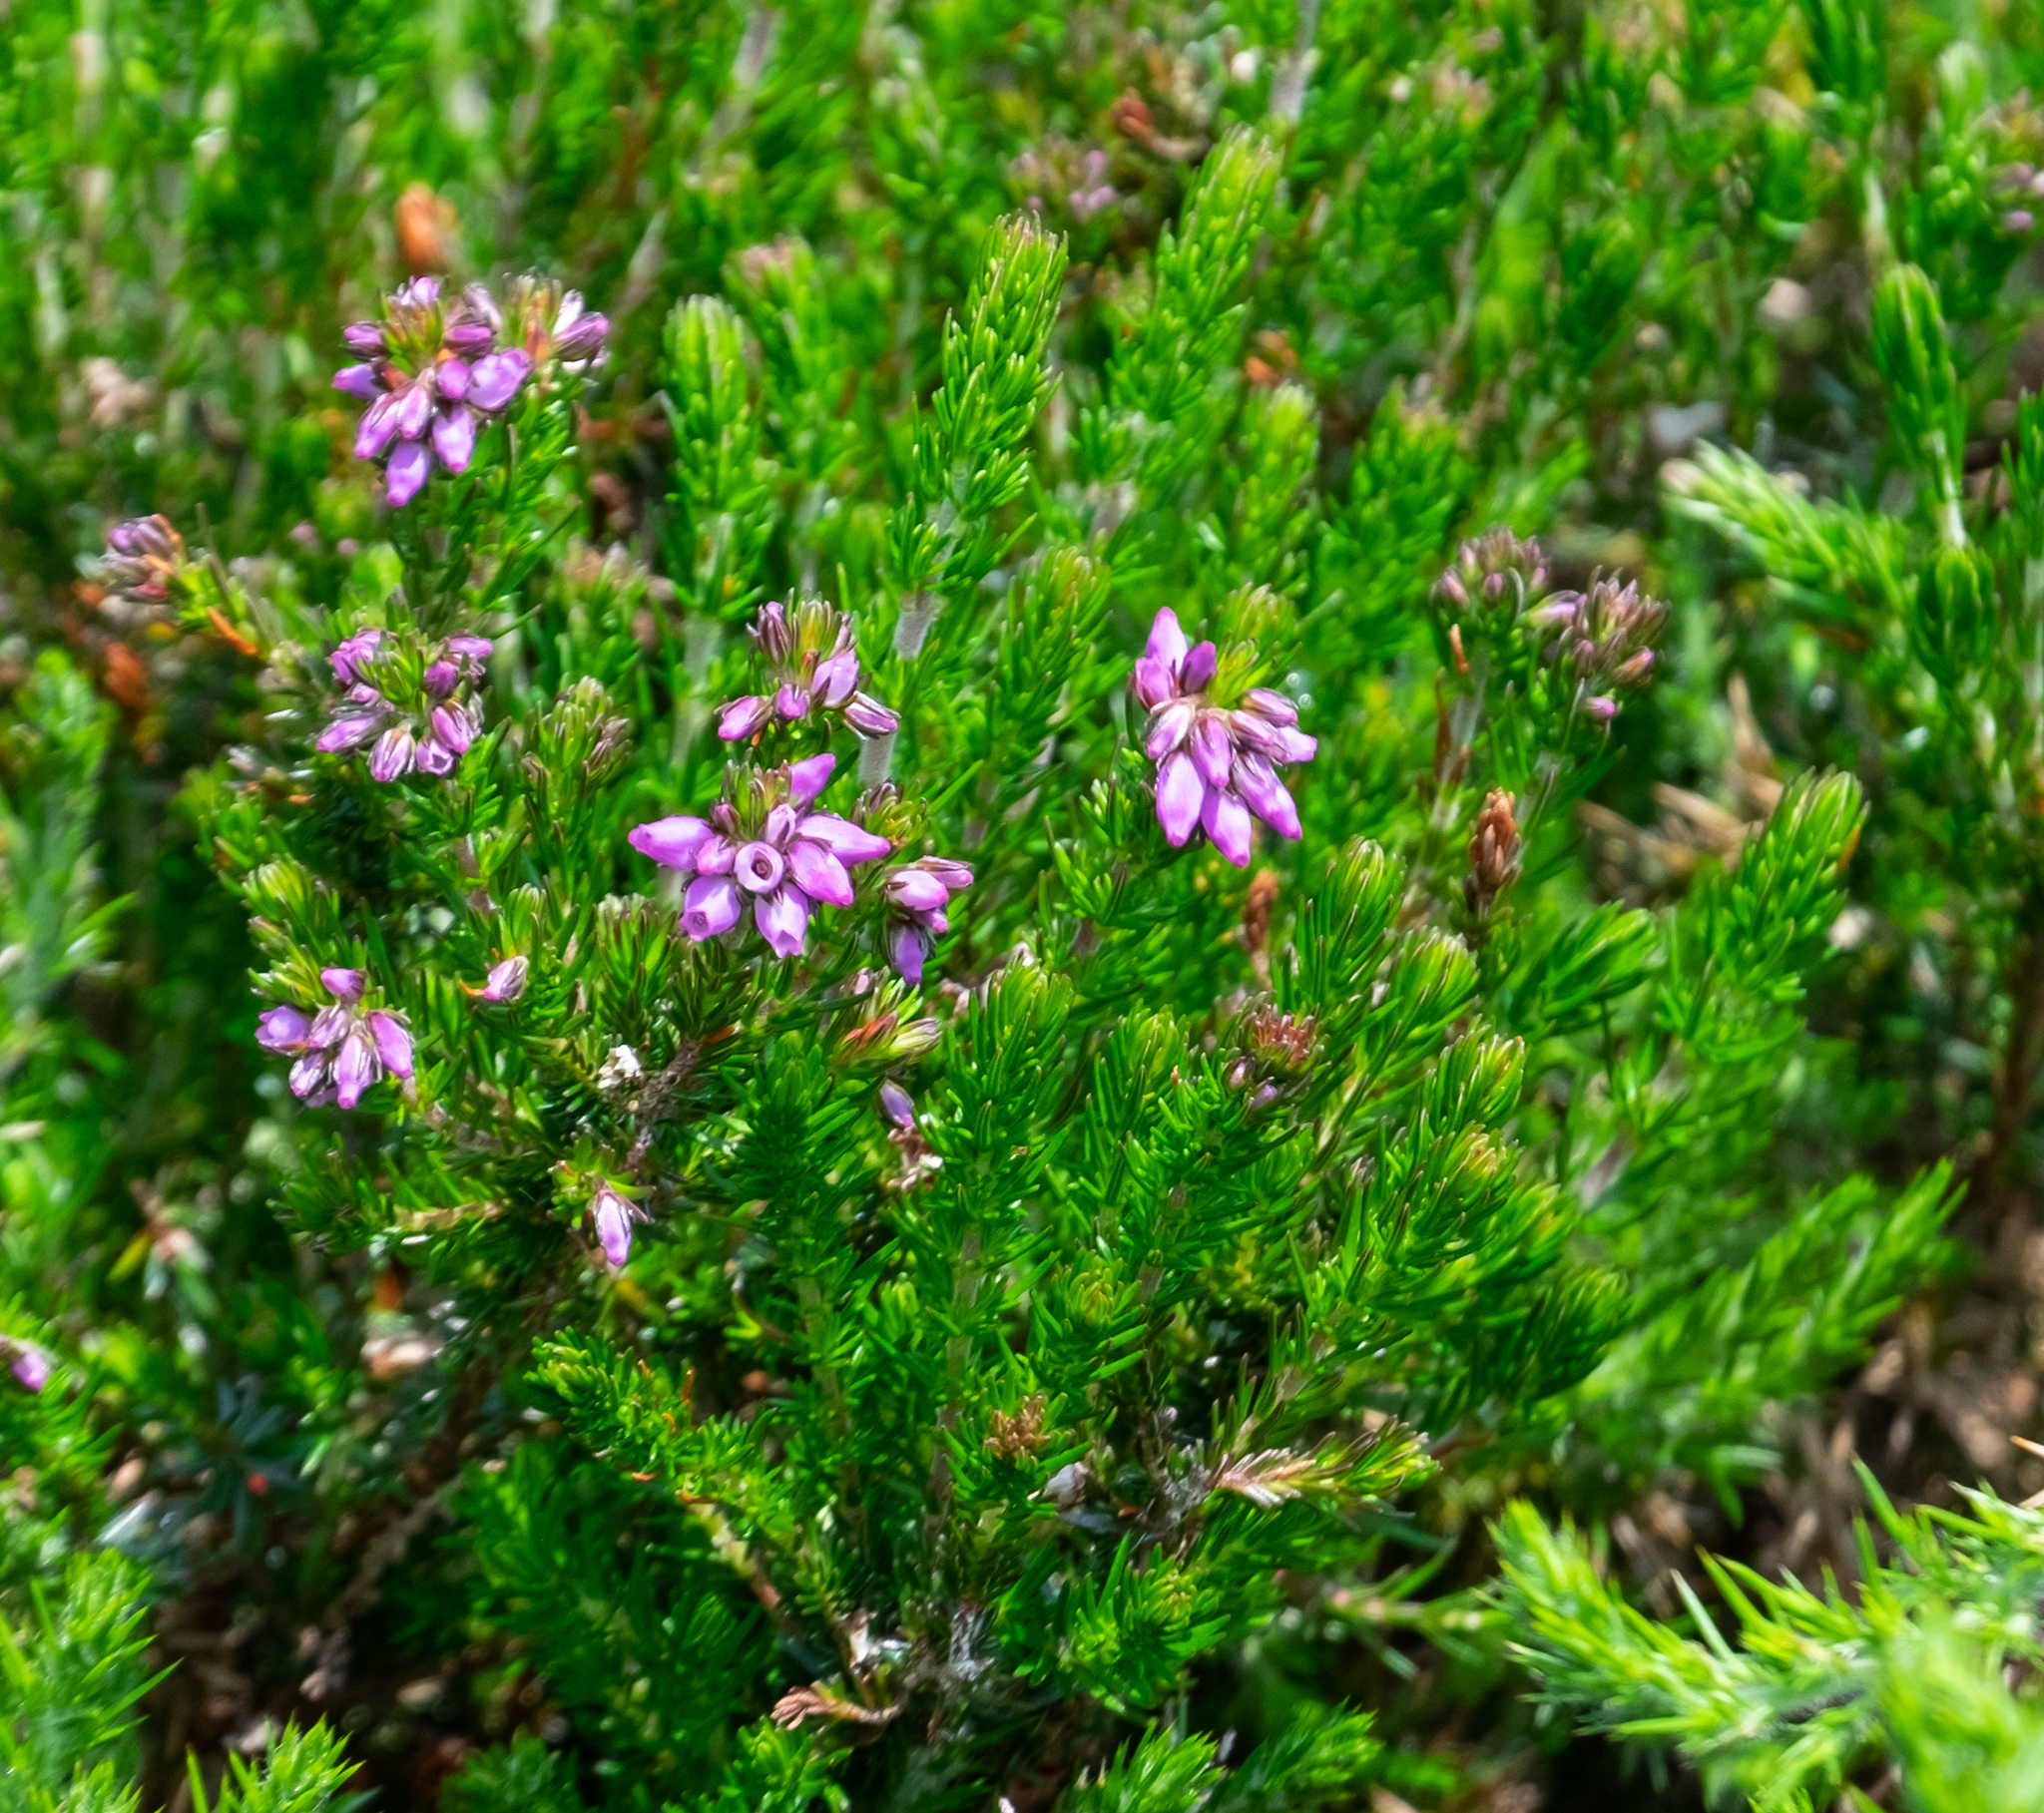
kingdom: Plantae
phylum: Tracheophyta
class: Magnoliopsida
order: Ericales
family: Ericaceae
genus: Erica
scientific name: Erica cinerea
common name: Bell heather
